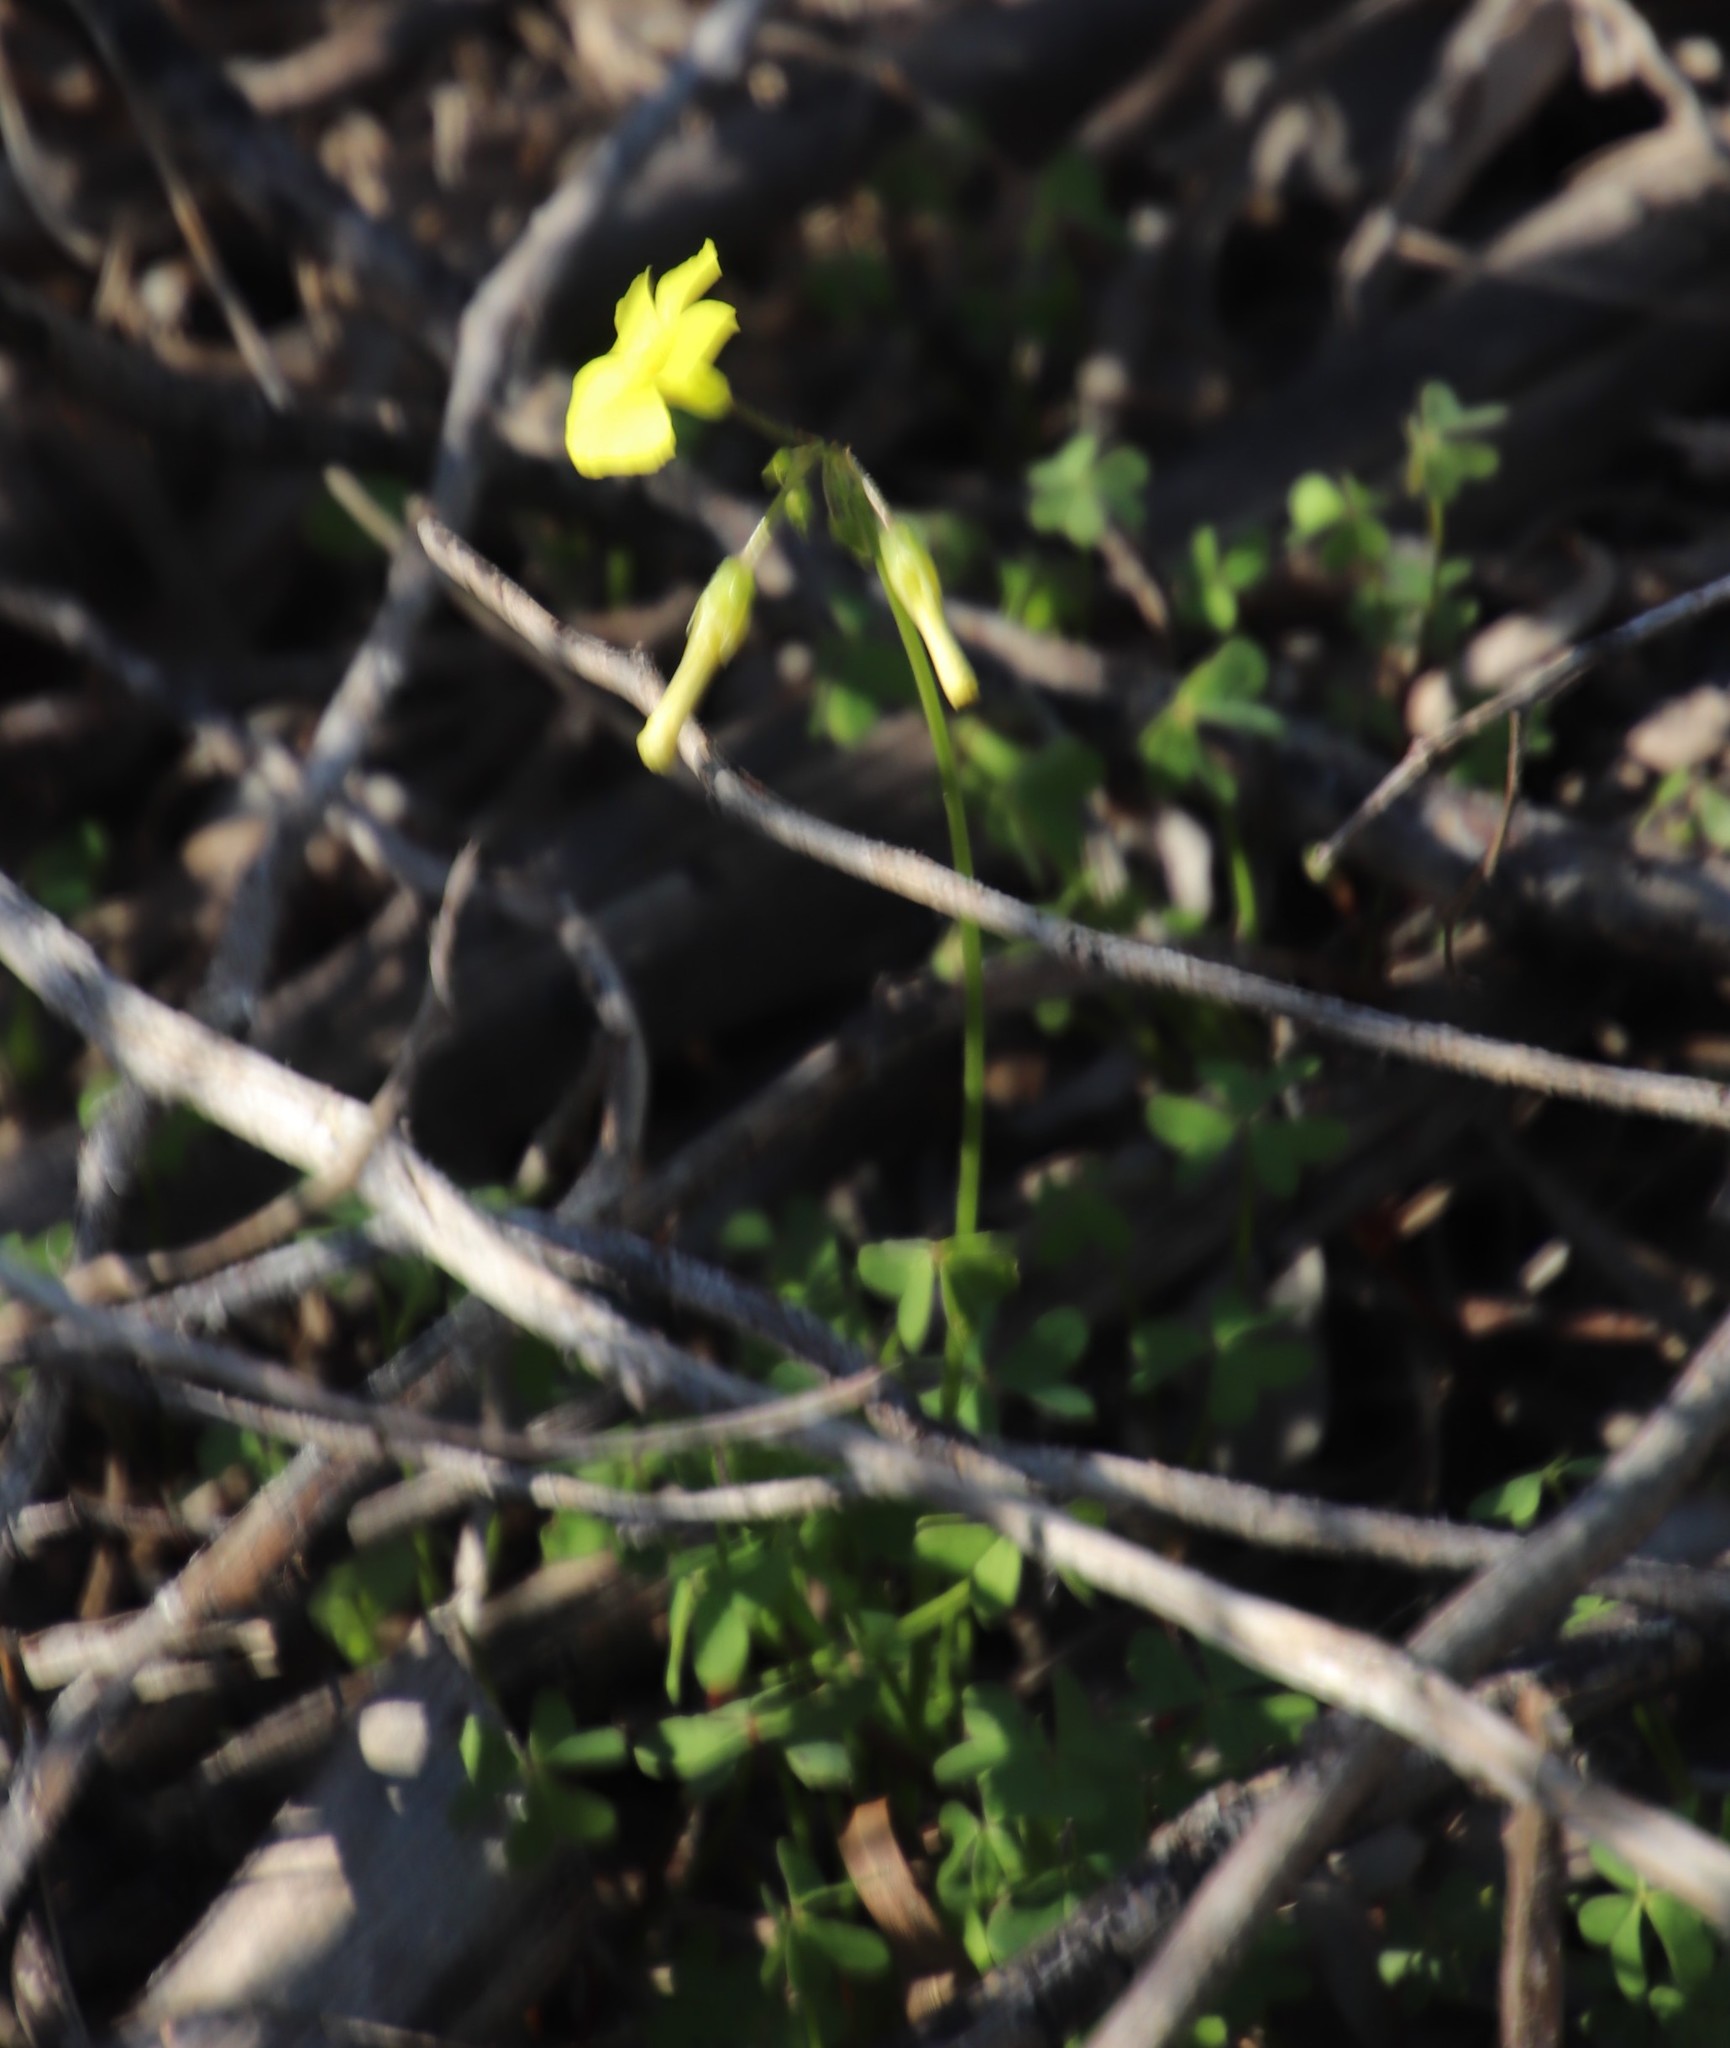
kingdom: Plantae
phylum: Tracheophyta
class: Magnoliopsida
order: Oxalidales
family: Oxalidaceae
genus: Oxalis
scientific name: Oxalis pes-caprae
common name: Bermuda-buttercup
